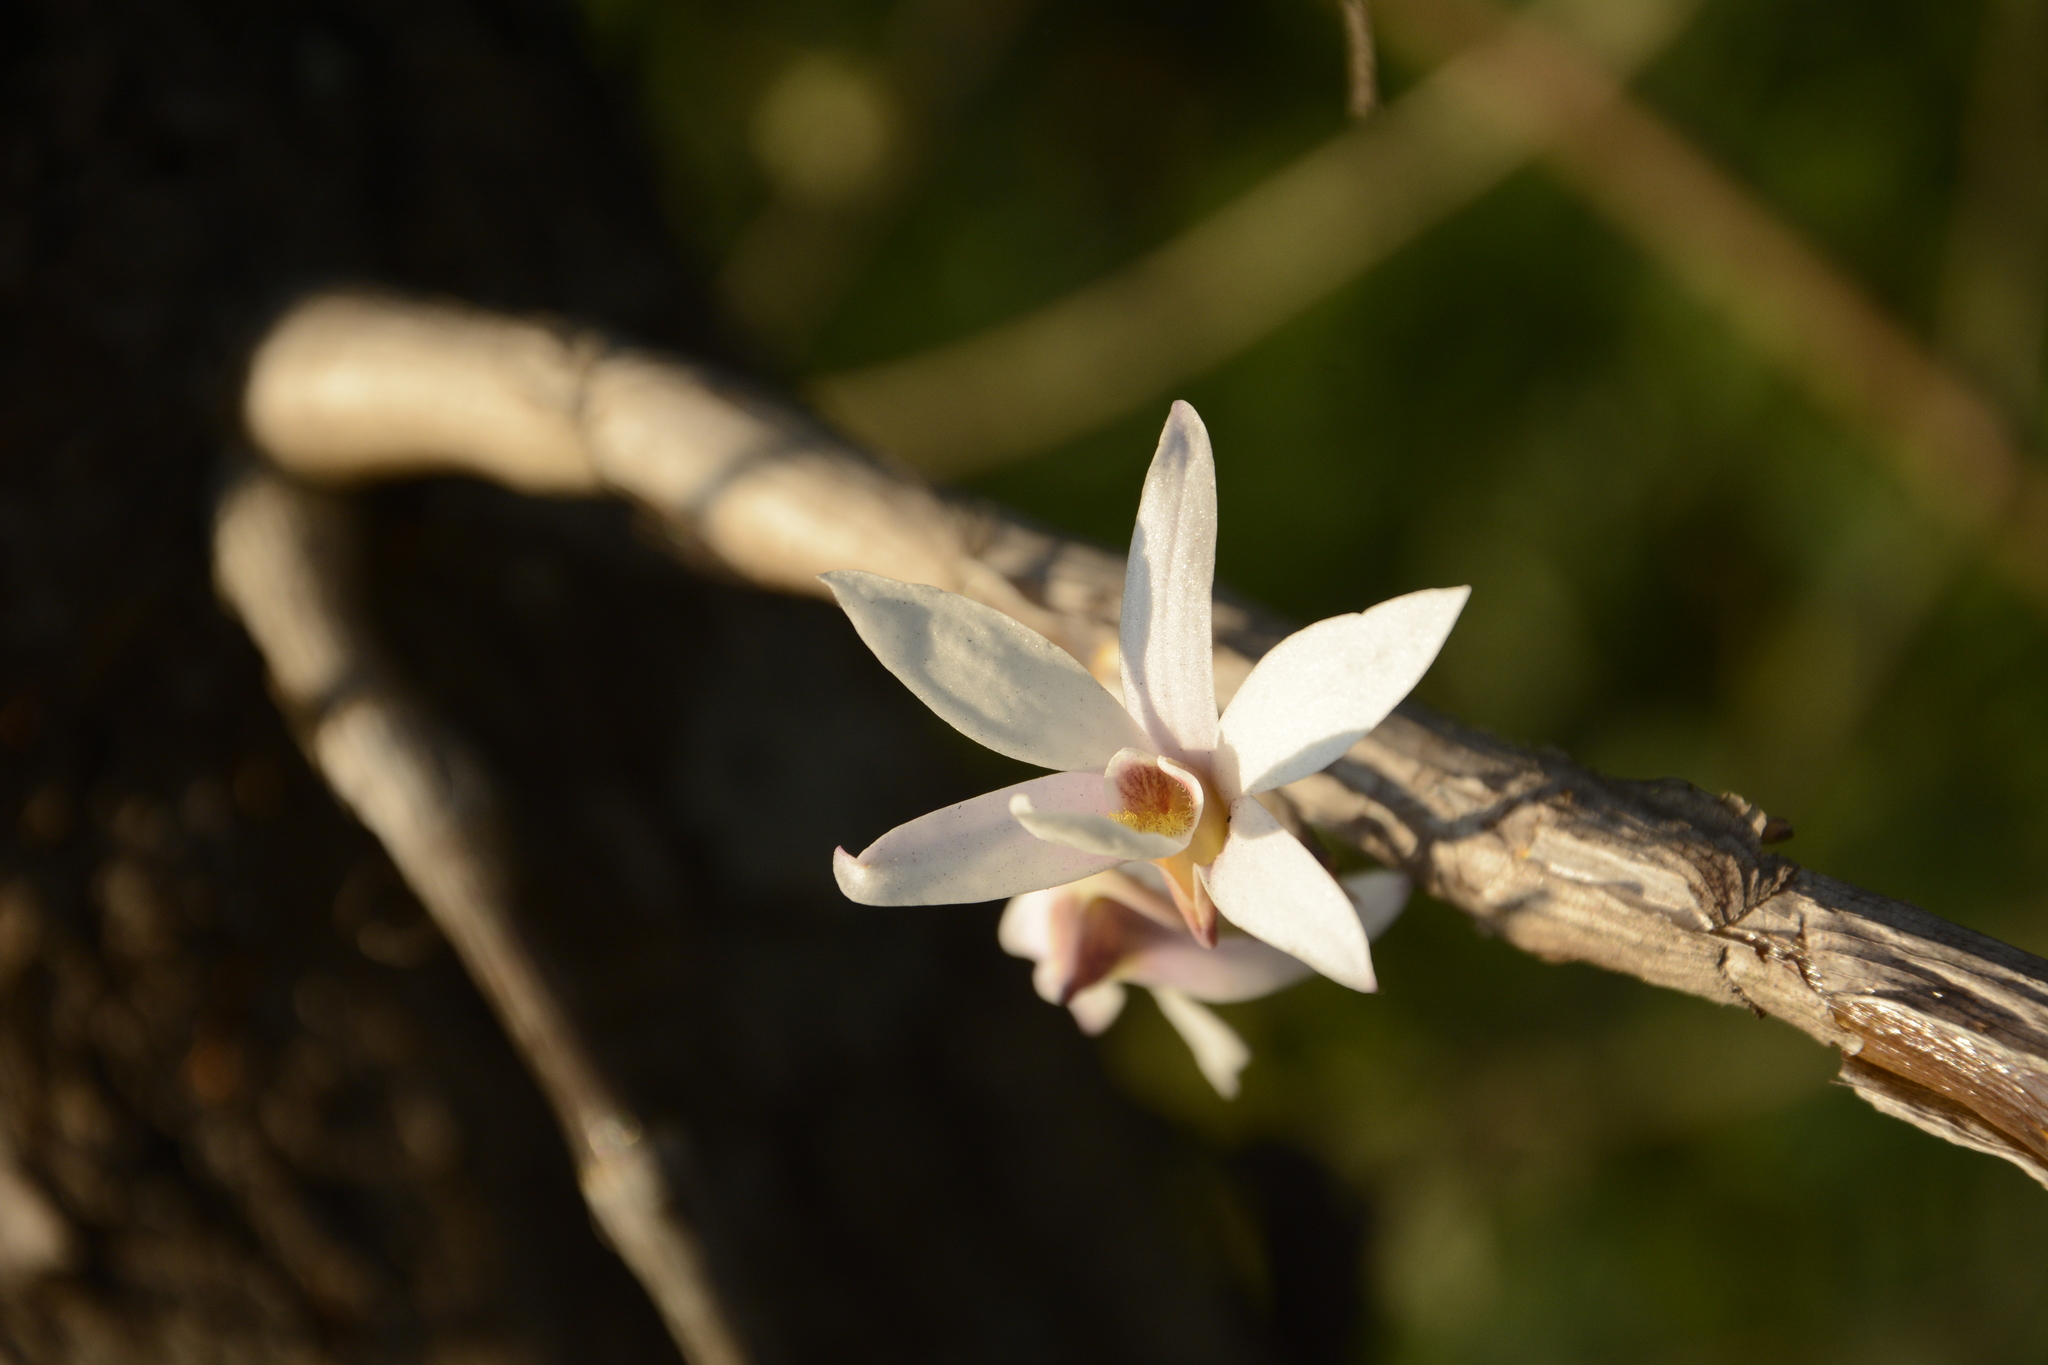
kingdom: Plantae
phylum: Tracheophyta
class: Liliopsida
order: Asparagales
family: Orchidaceae
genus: Dendrobium
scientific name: Dendrobium barbatulum
